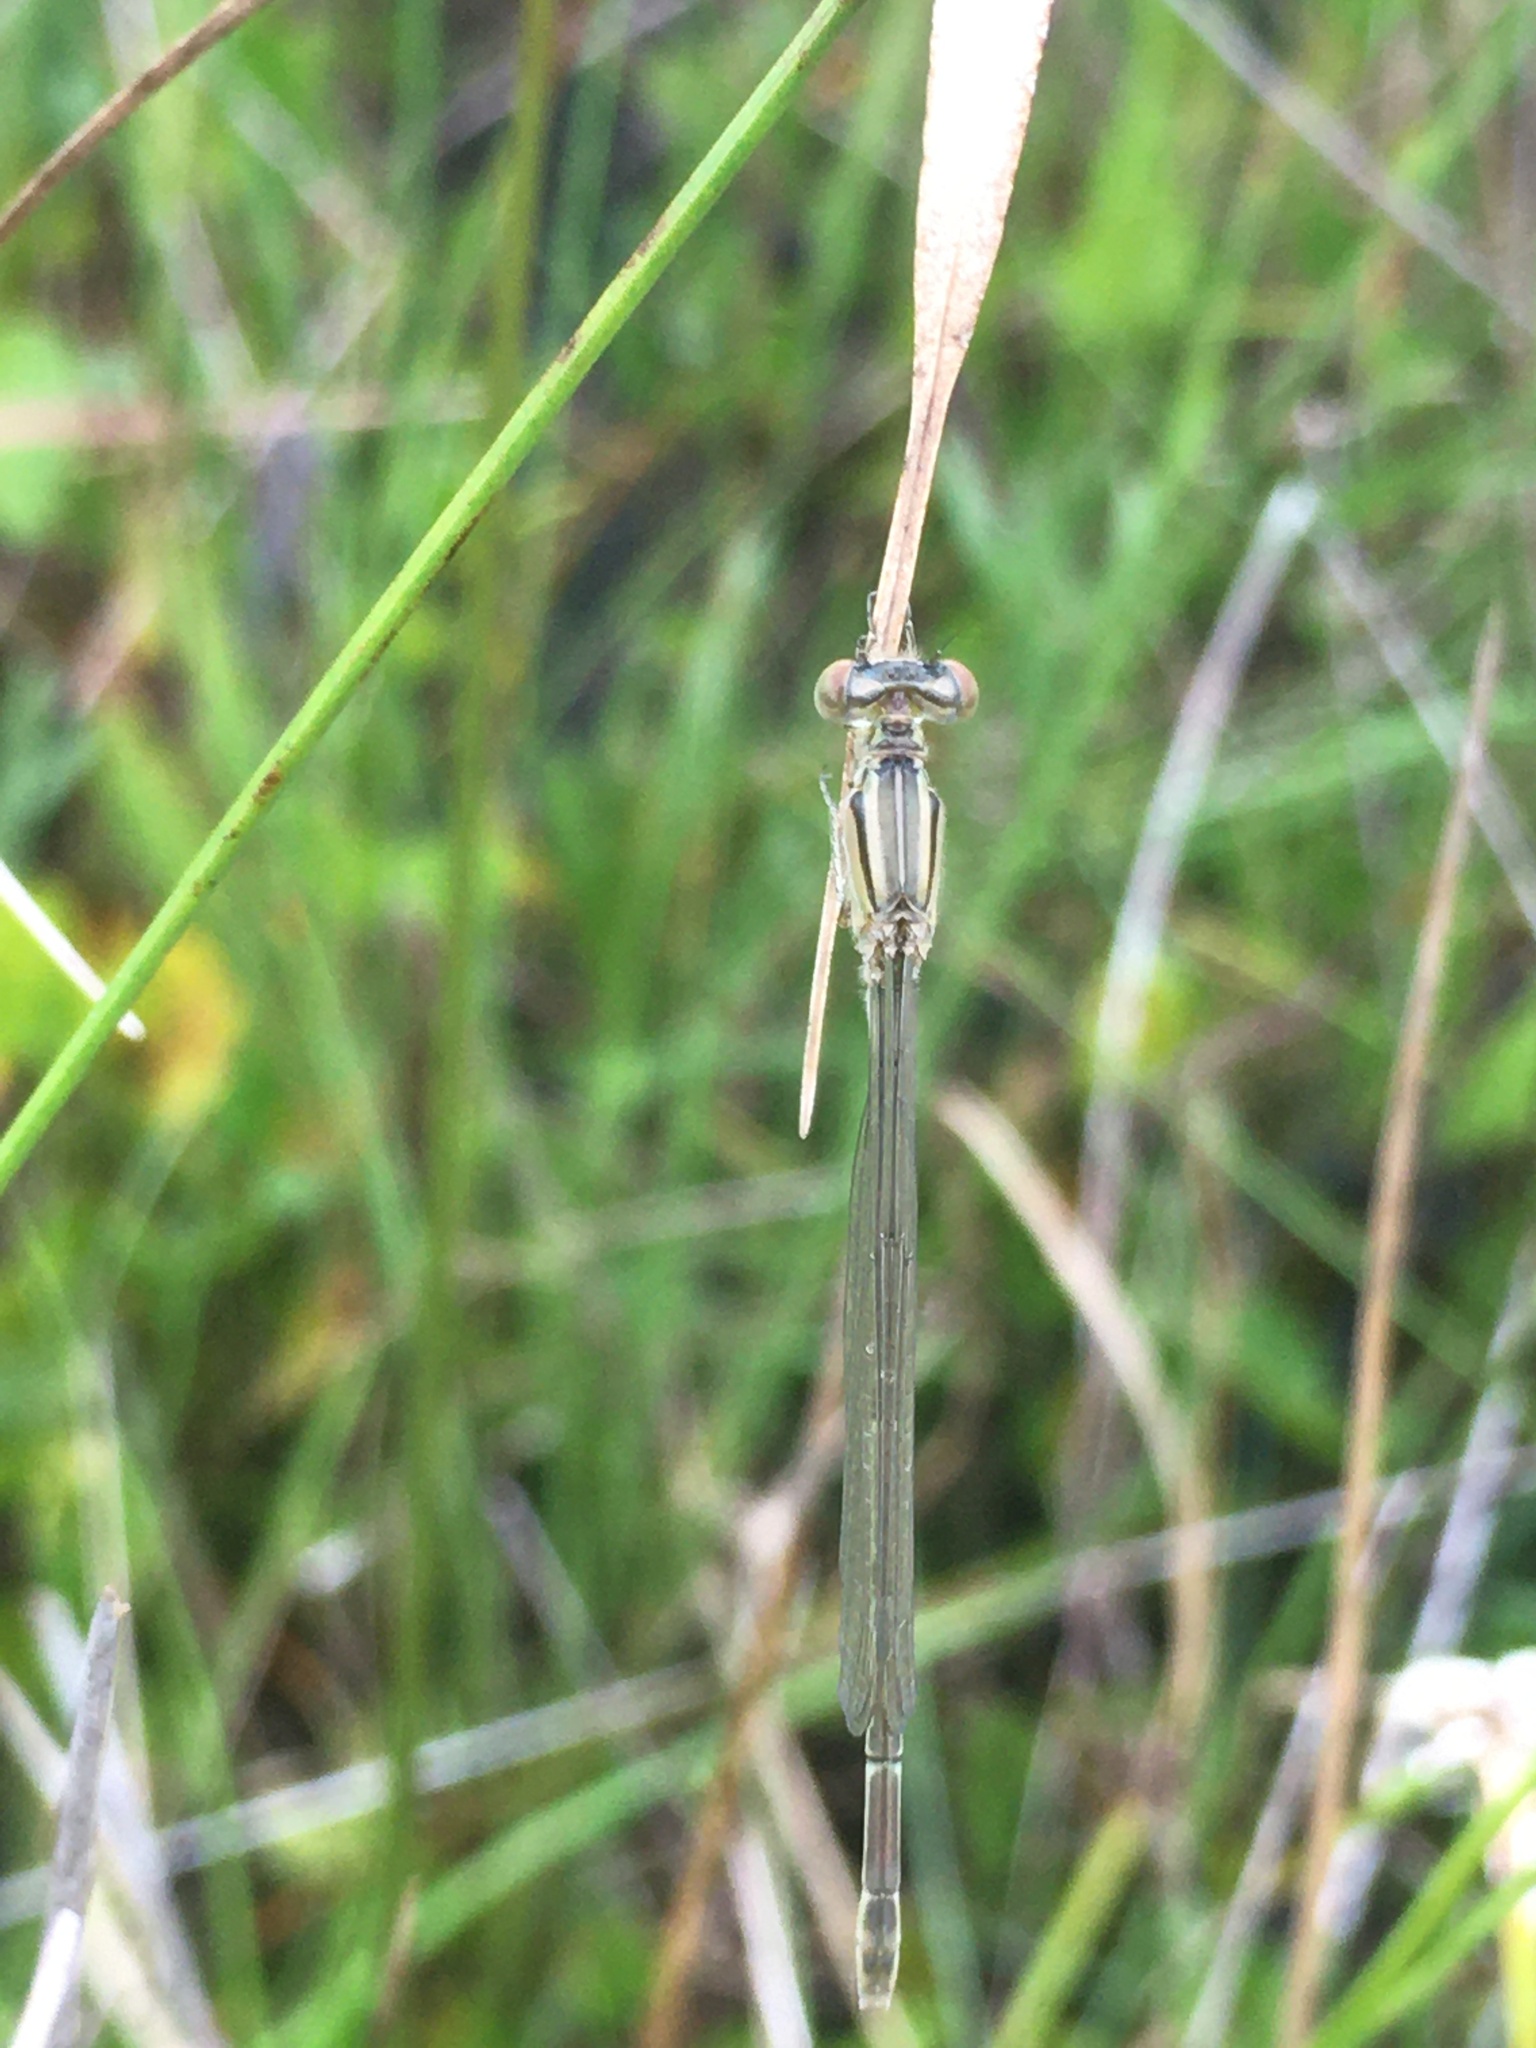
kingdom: Animalia
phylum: Arthropoda
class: Insecta
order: Odonata
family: Coenagrionidae
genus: Enallagma
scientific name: Enallagma durum
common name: Big bluet
